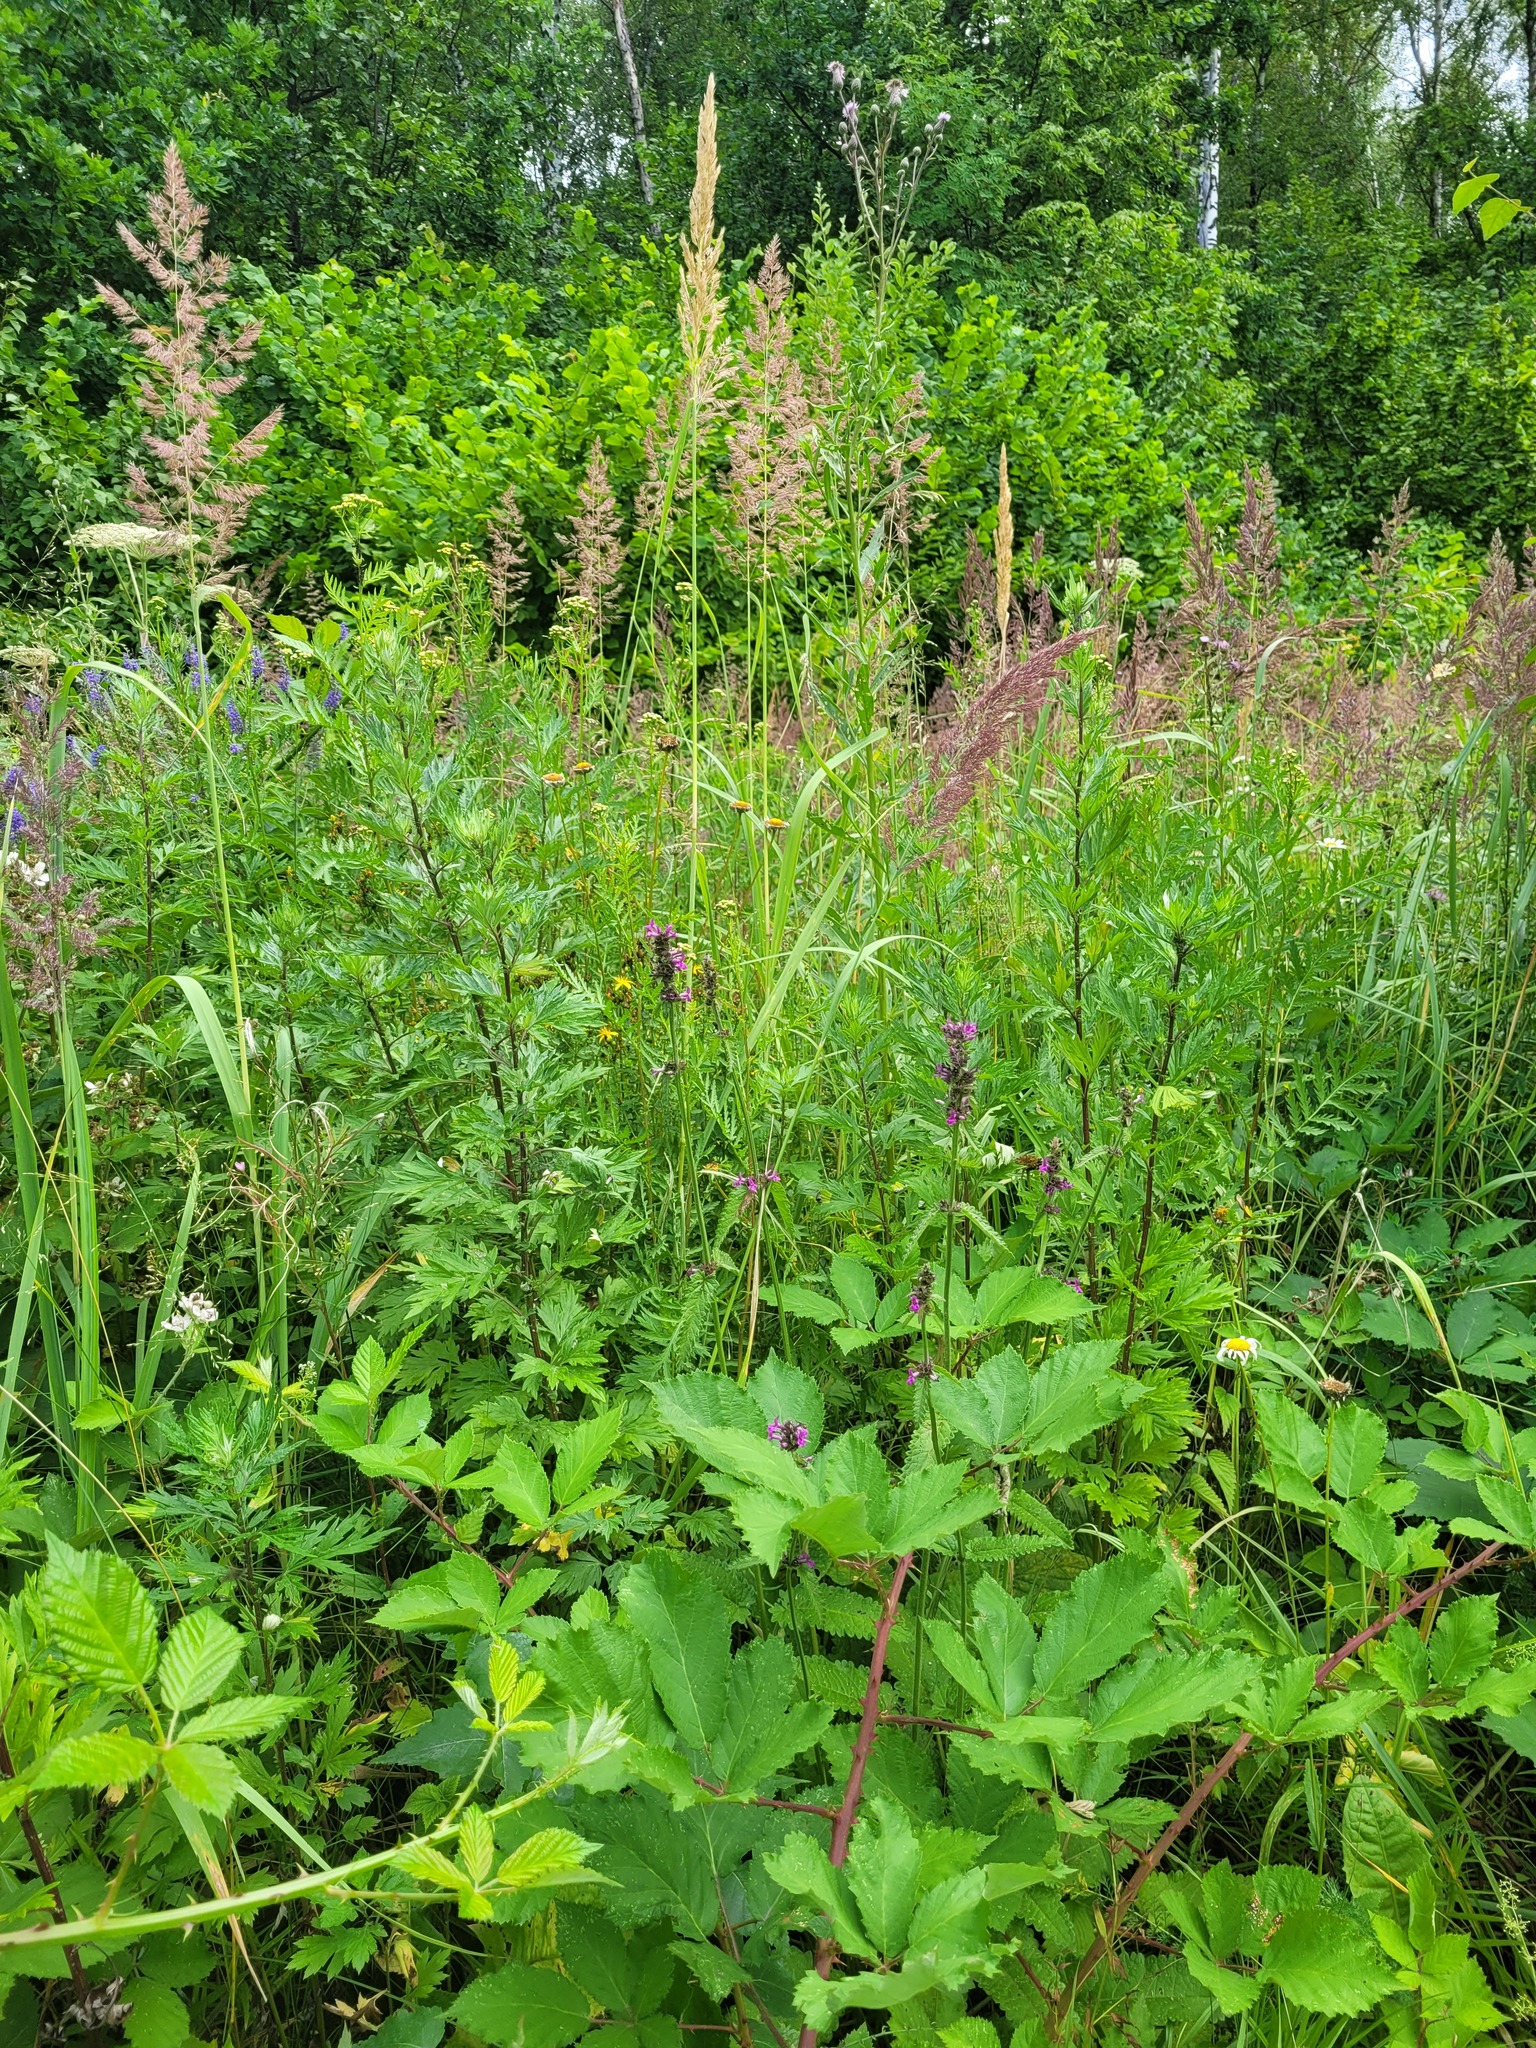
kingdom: Plantae
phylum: Tracheophyta
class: Magnoliopsida
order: Lamiales
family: Lamiaceae
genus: Betonica
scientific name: Betonica officinalis
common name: Bishop's-wort
